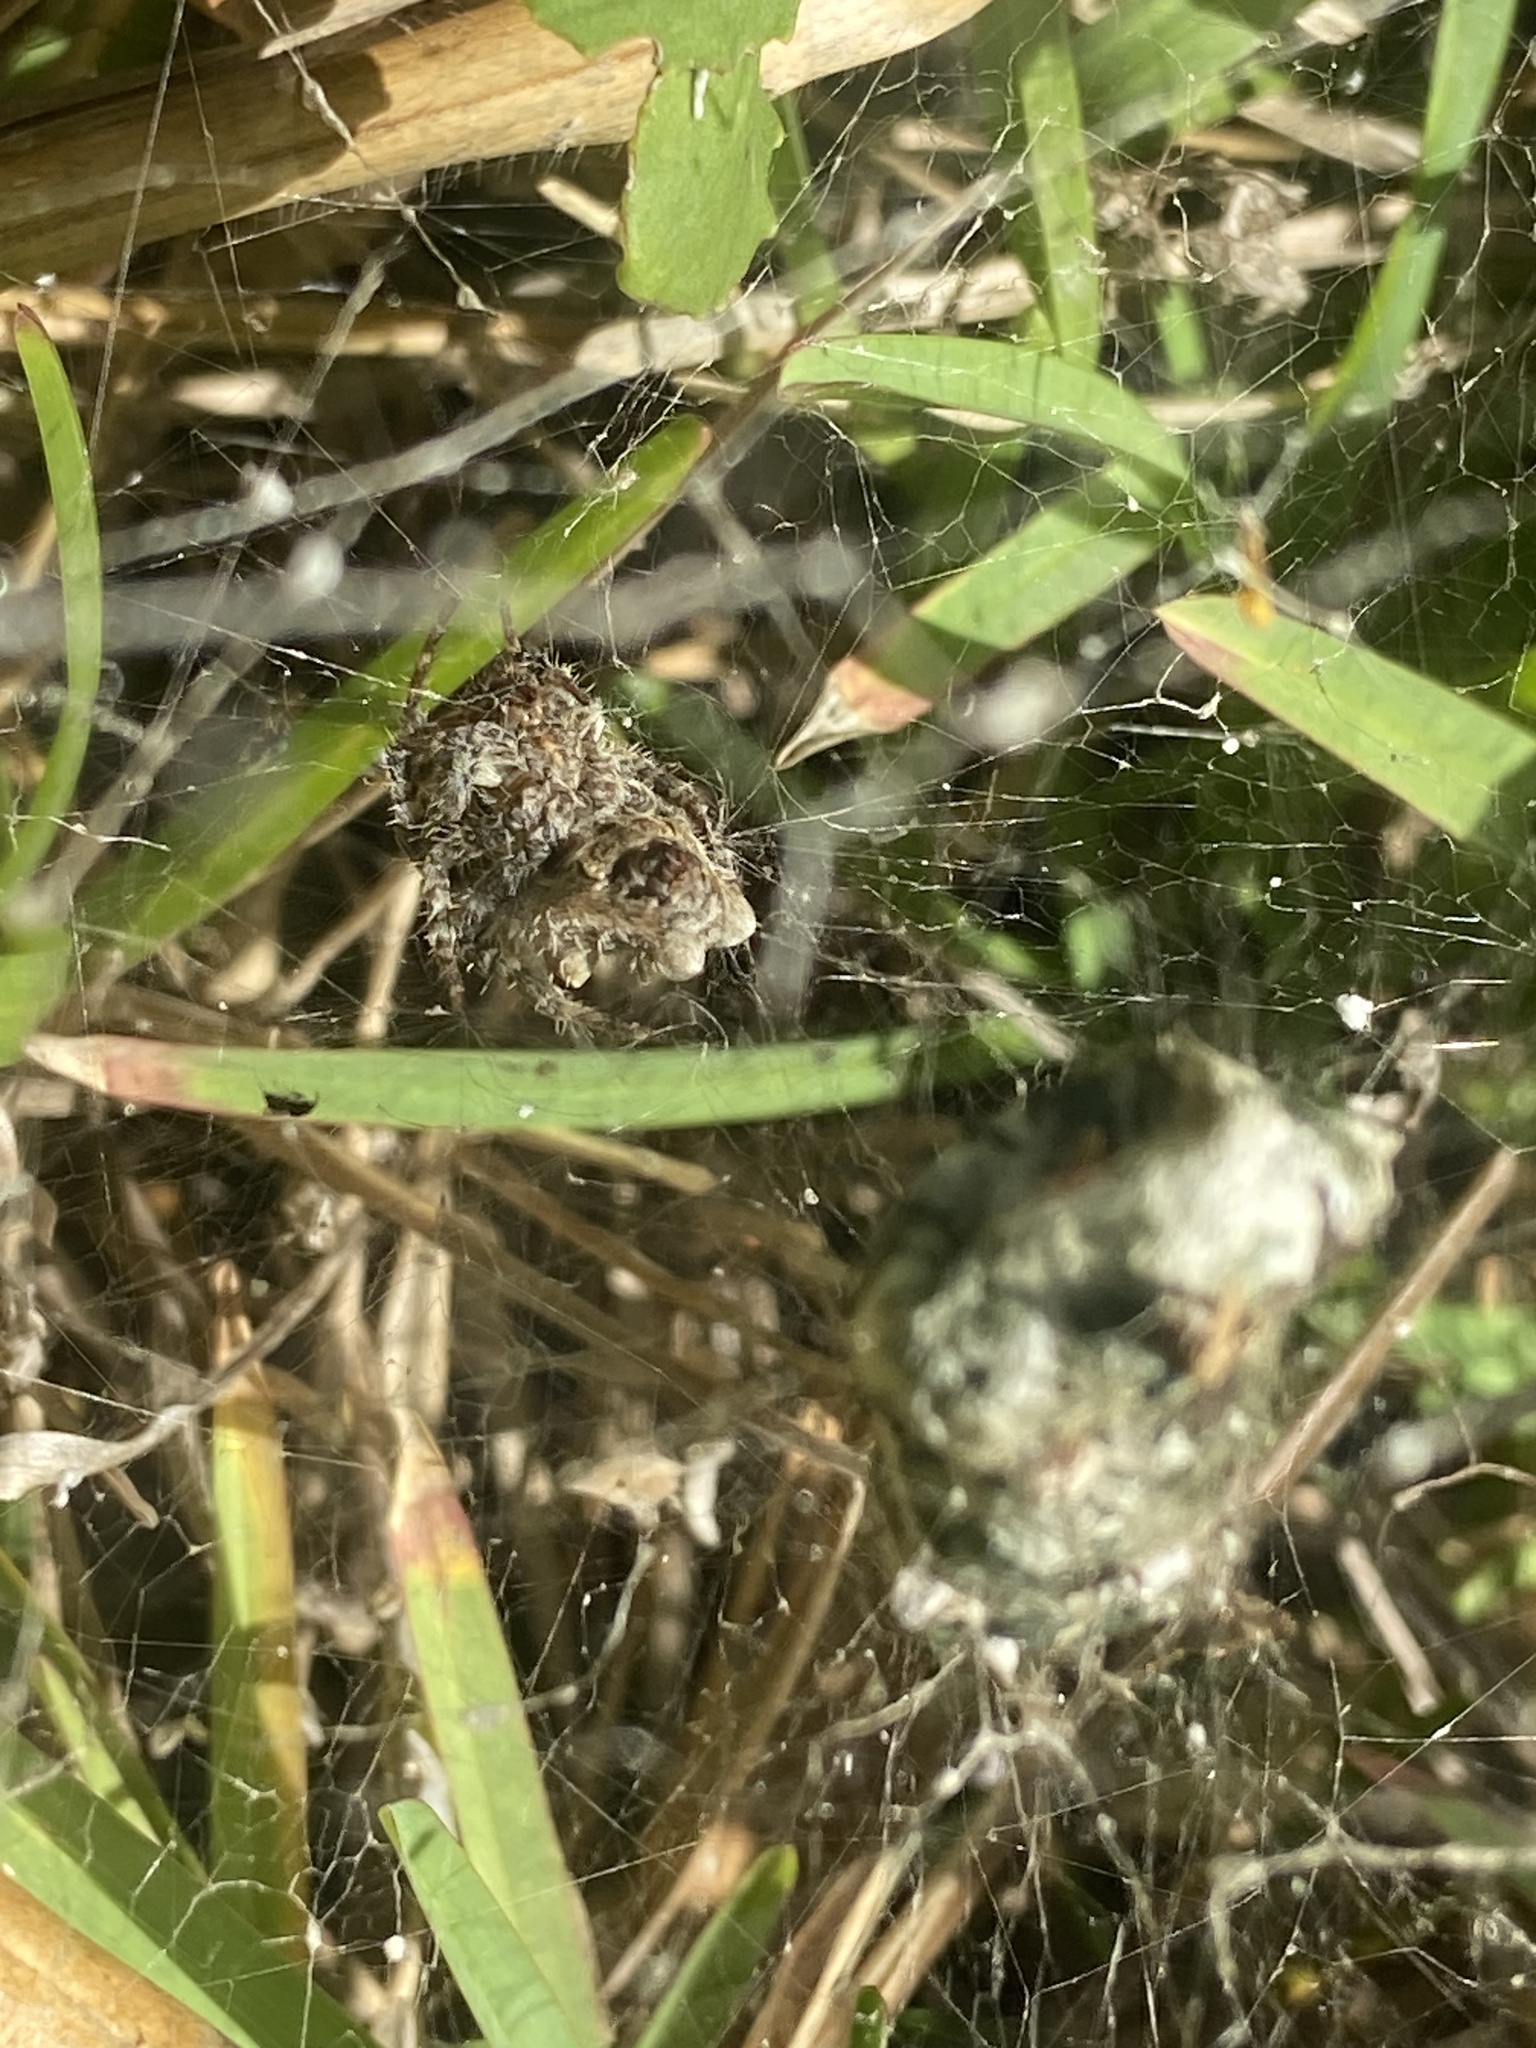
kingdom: Animalia
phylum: Arthropoda
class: Arachnida
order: Araneae
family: Araneidae
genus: Cyrtophora
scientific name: Cyrtophora citricola
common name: Orb weavers
